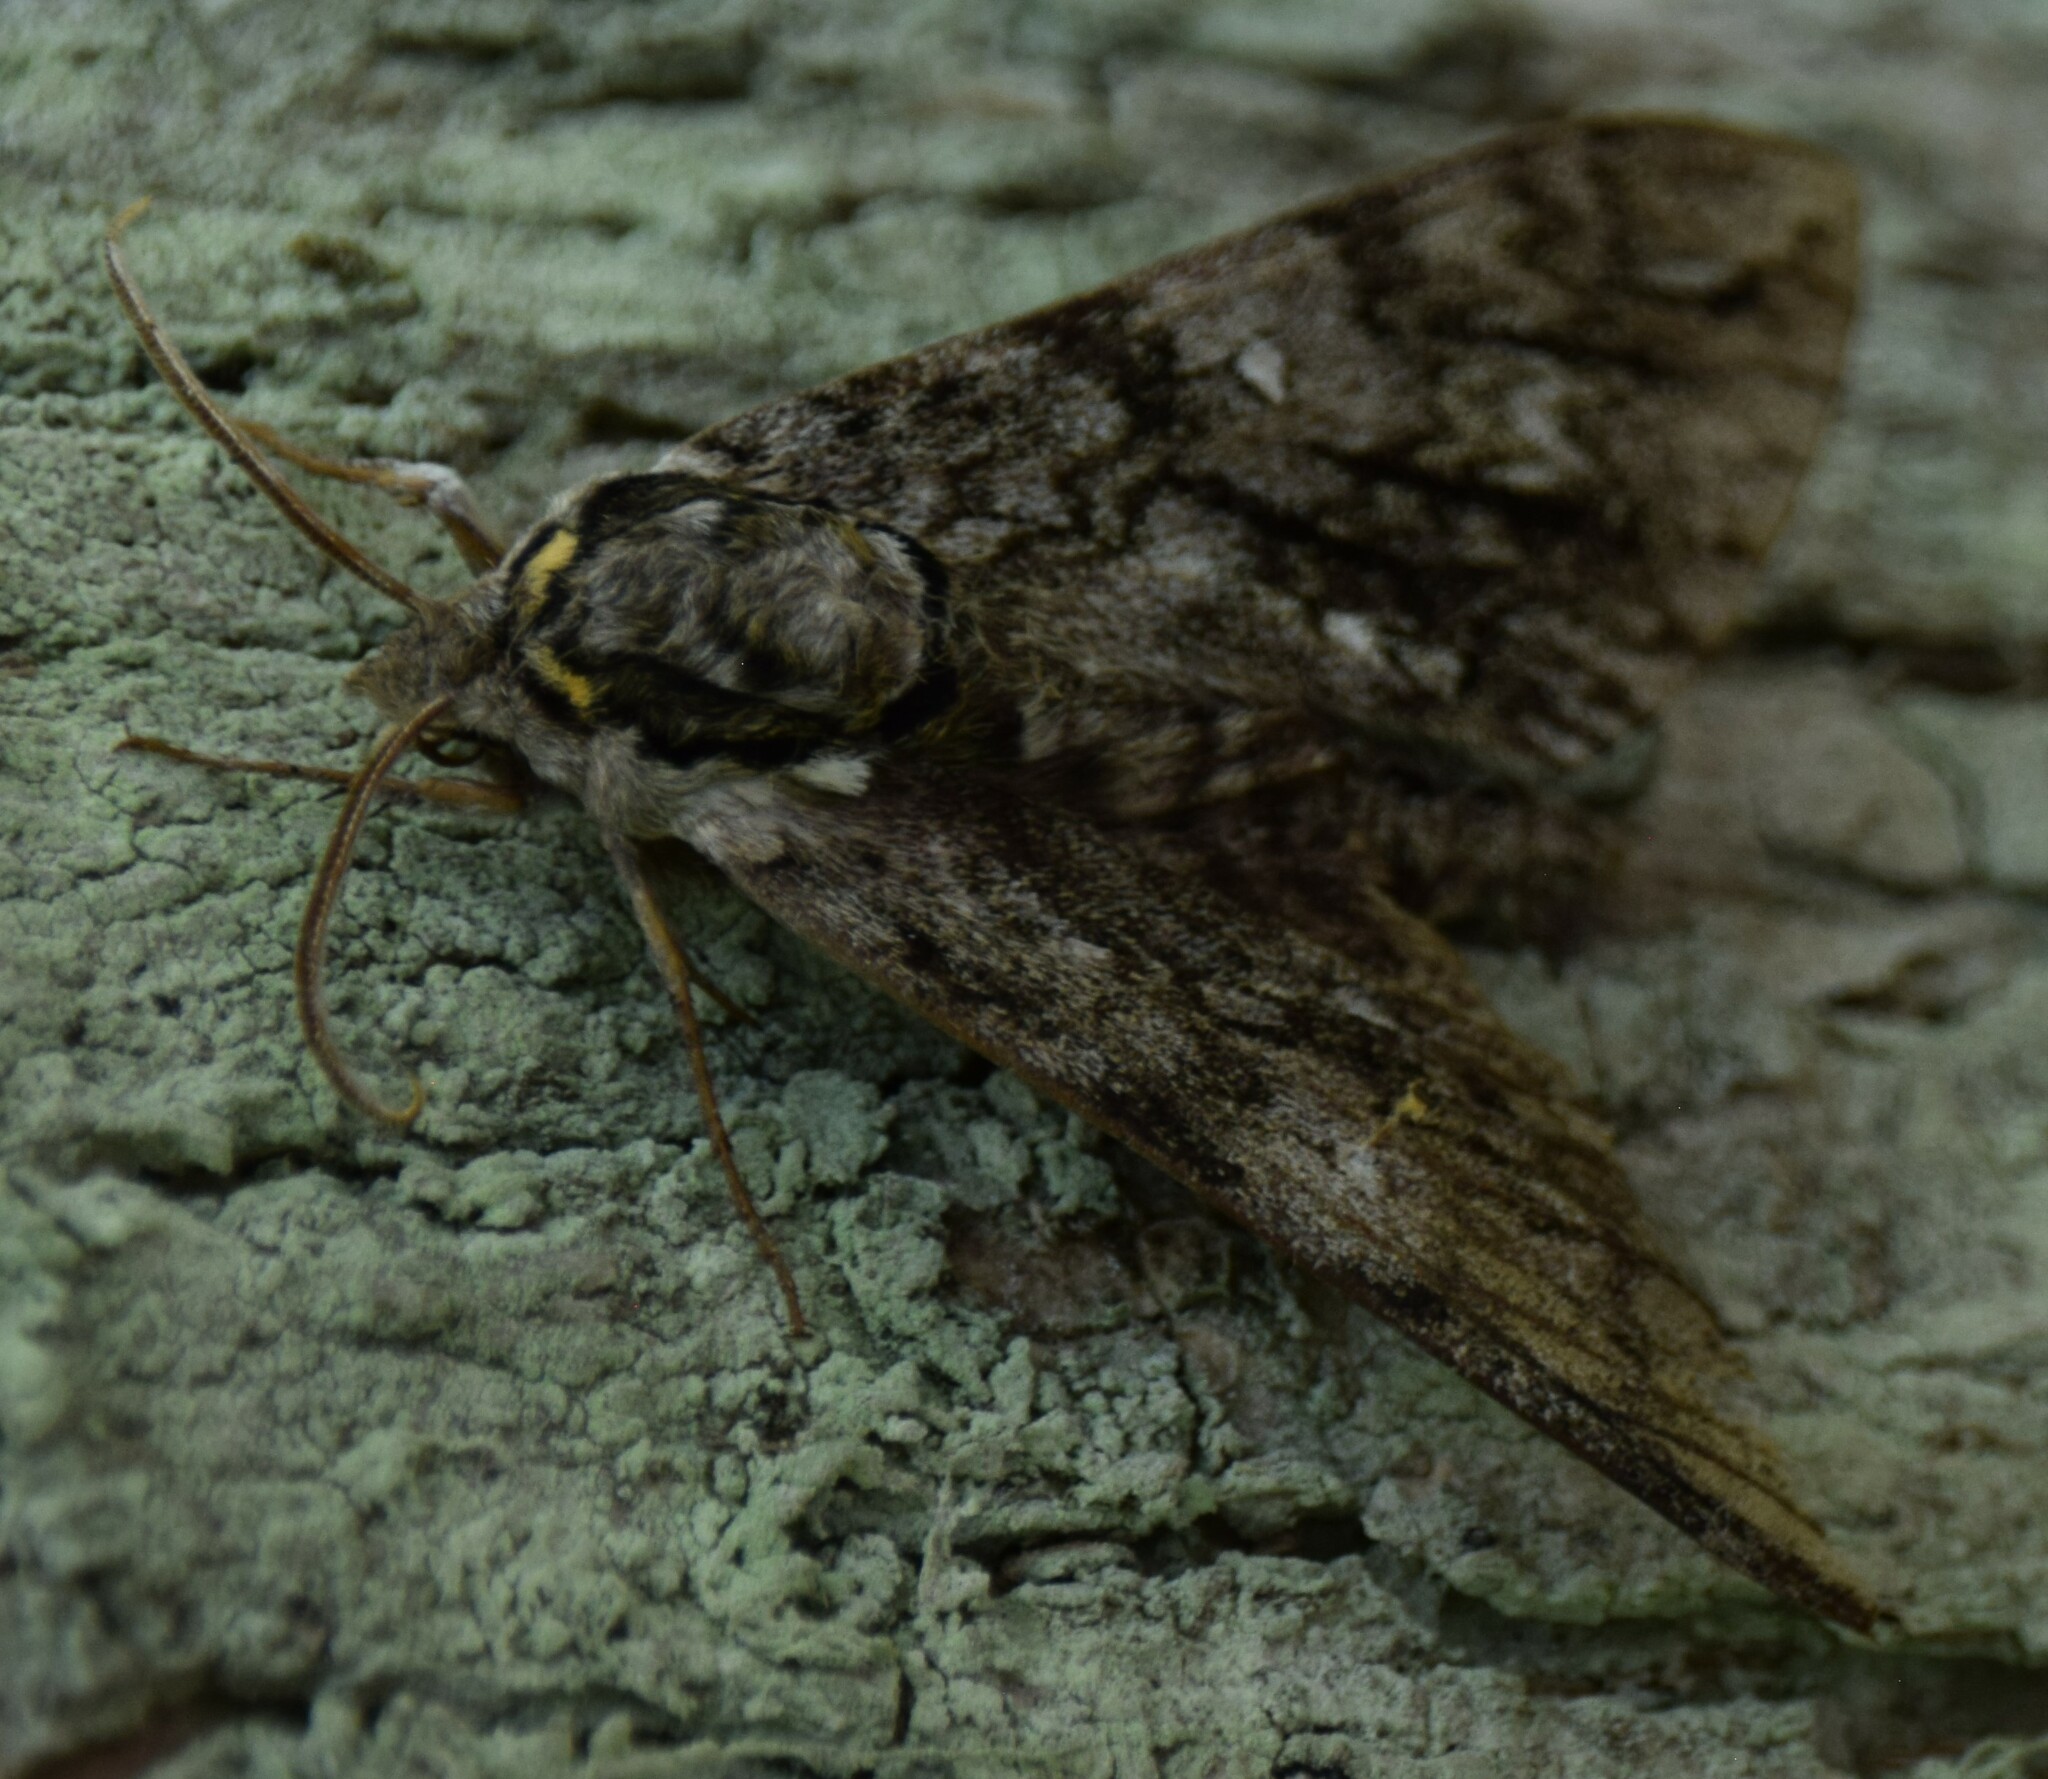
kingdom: Animalia
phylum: Arthropoda
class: Insecta
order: Lepidoptera
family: Sphingidae
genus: Ceratomia
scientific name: Ceratomia undulosa
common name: Waved sphinx
